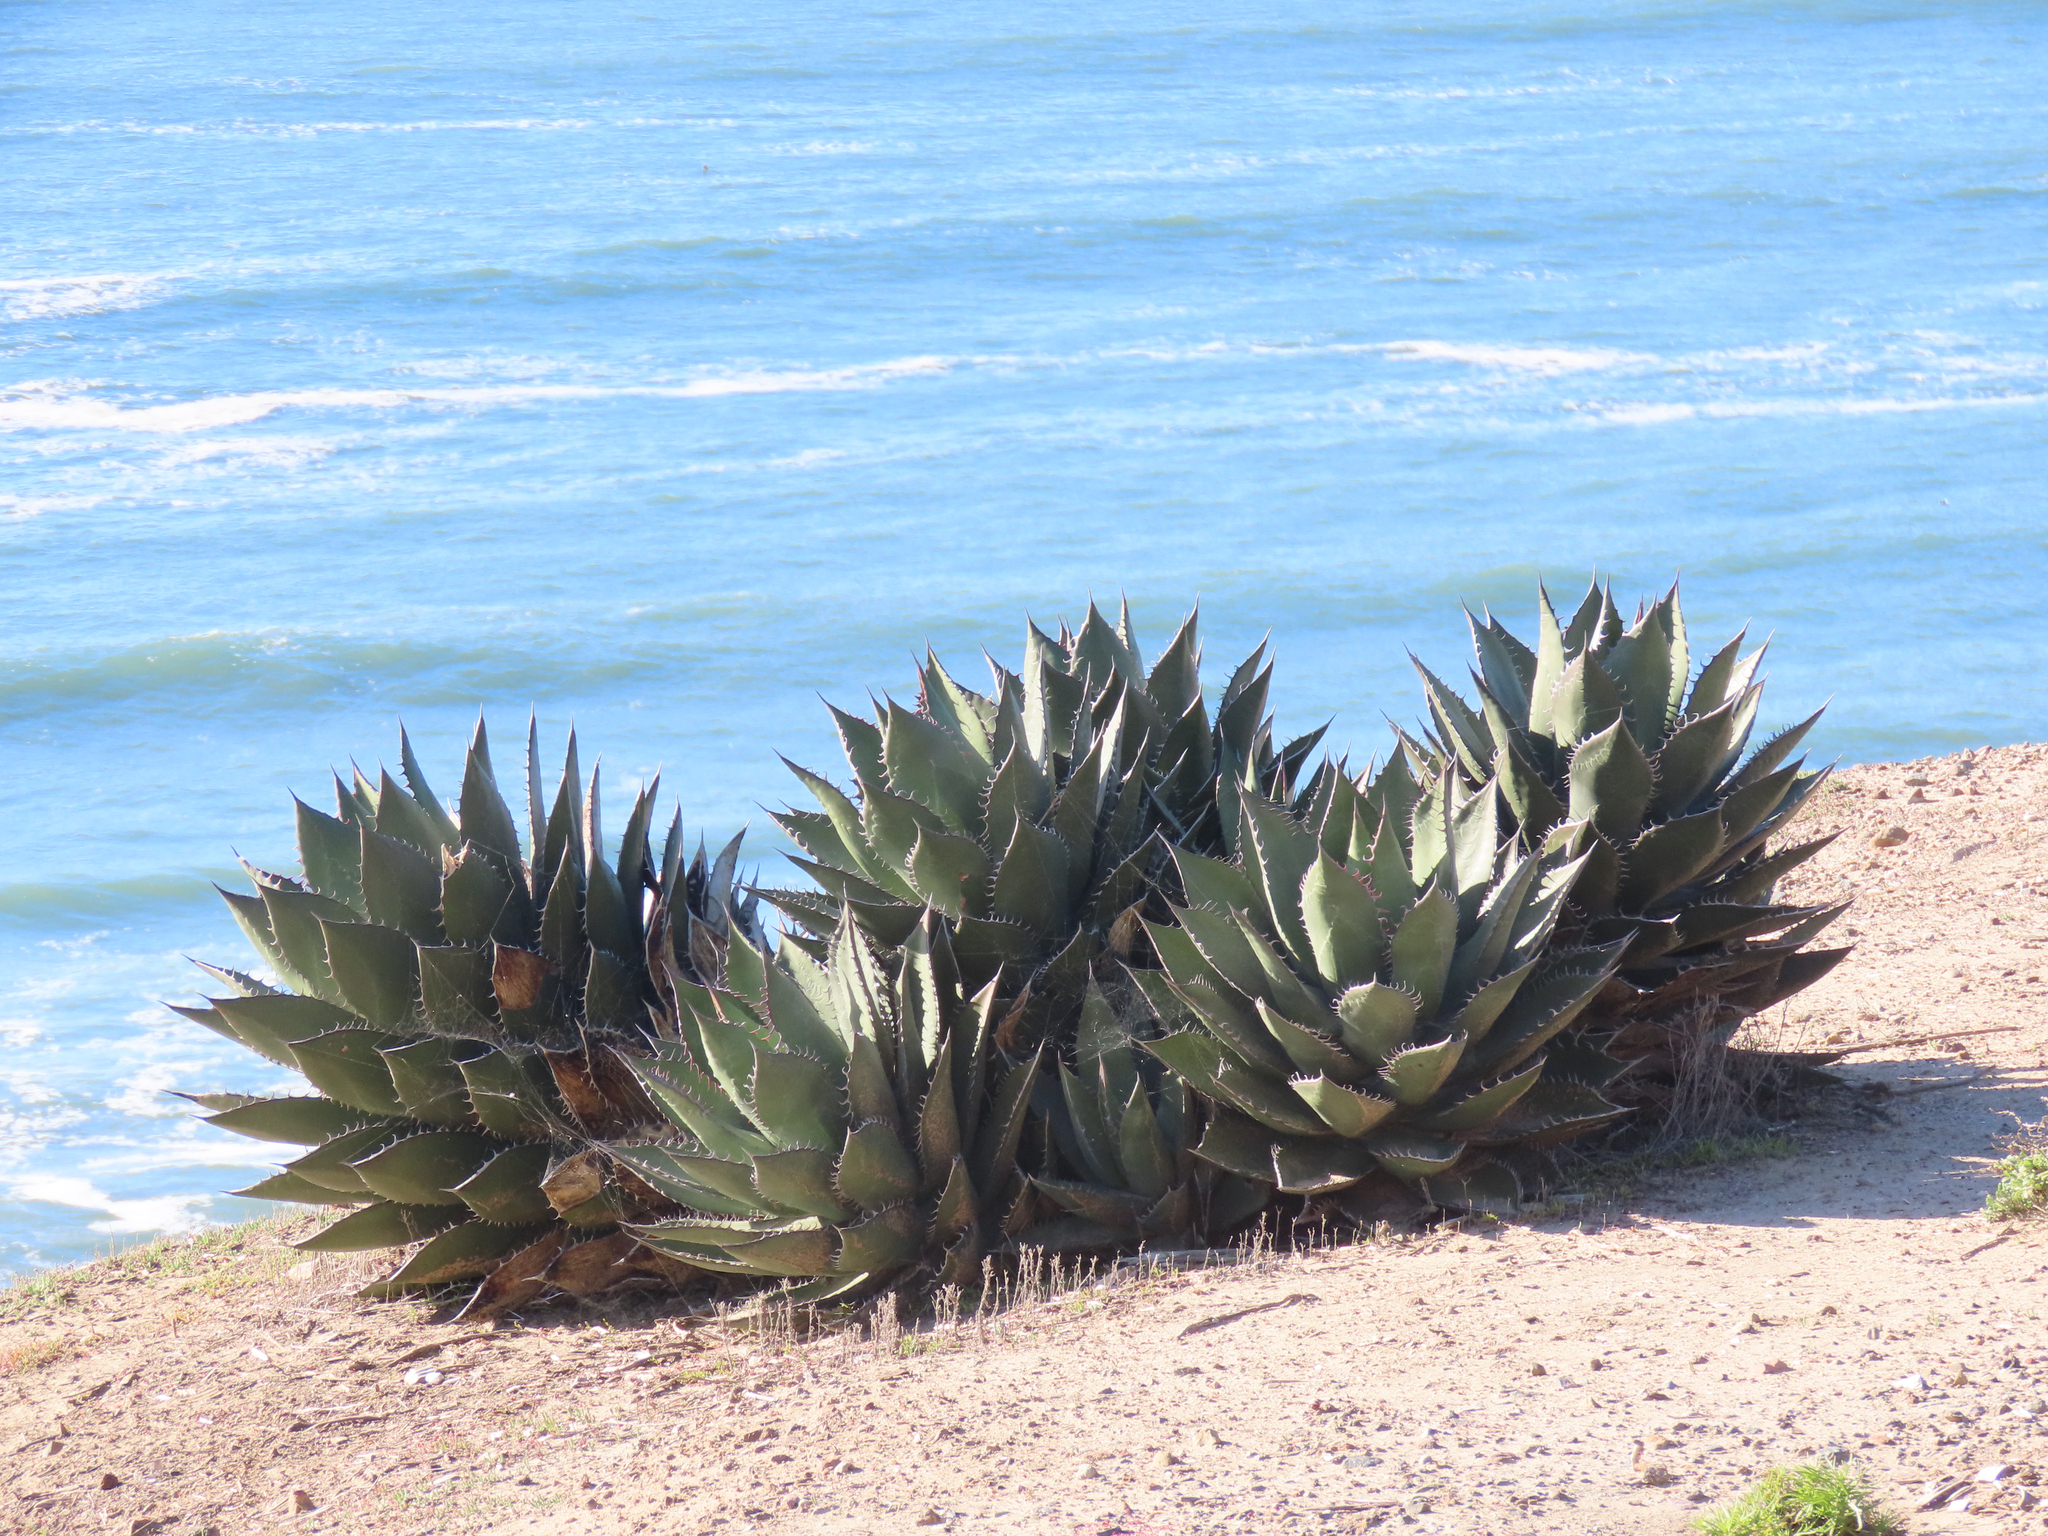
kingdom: Plantae
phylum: Tracheophyta
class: Liliopsida
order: Asparagales
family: Asparagaceae
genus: Agave
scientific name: Agave shawii
